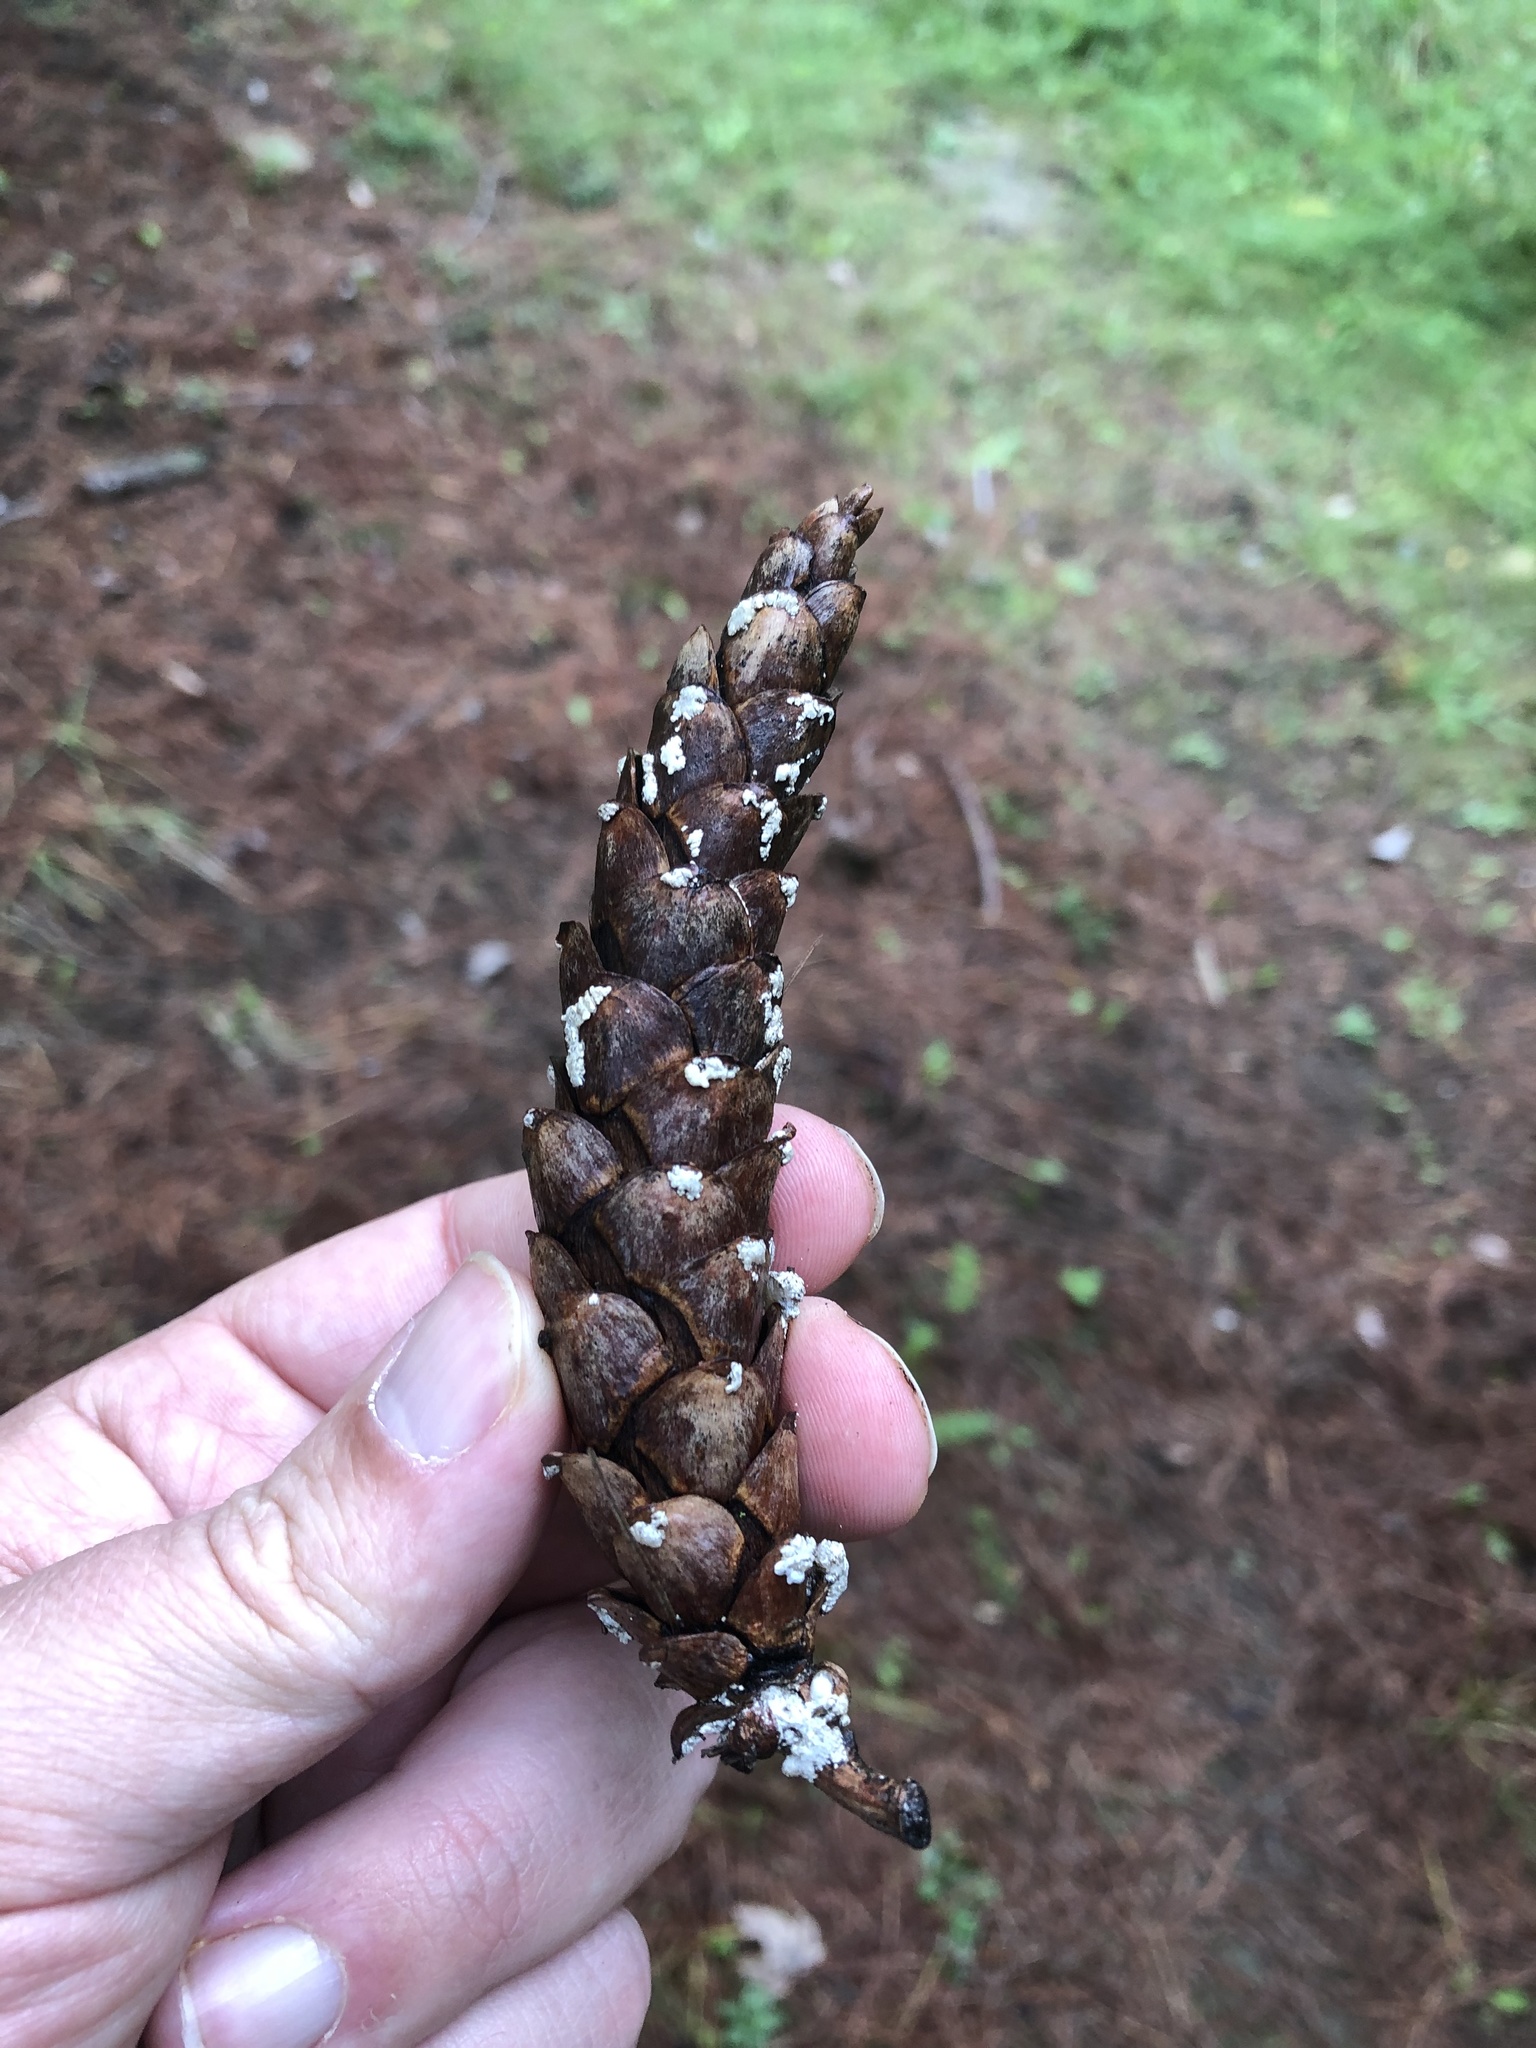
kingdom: Plantae
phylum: Tracheophyta
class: Pinopsida
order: Pinales
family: Pinaceae
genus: Pinus
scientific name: Pinus strobus
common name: Weymouth pine
